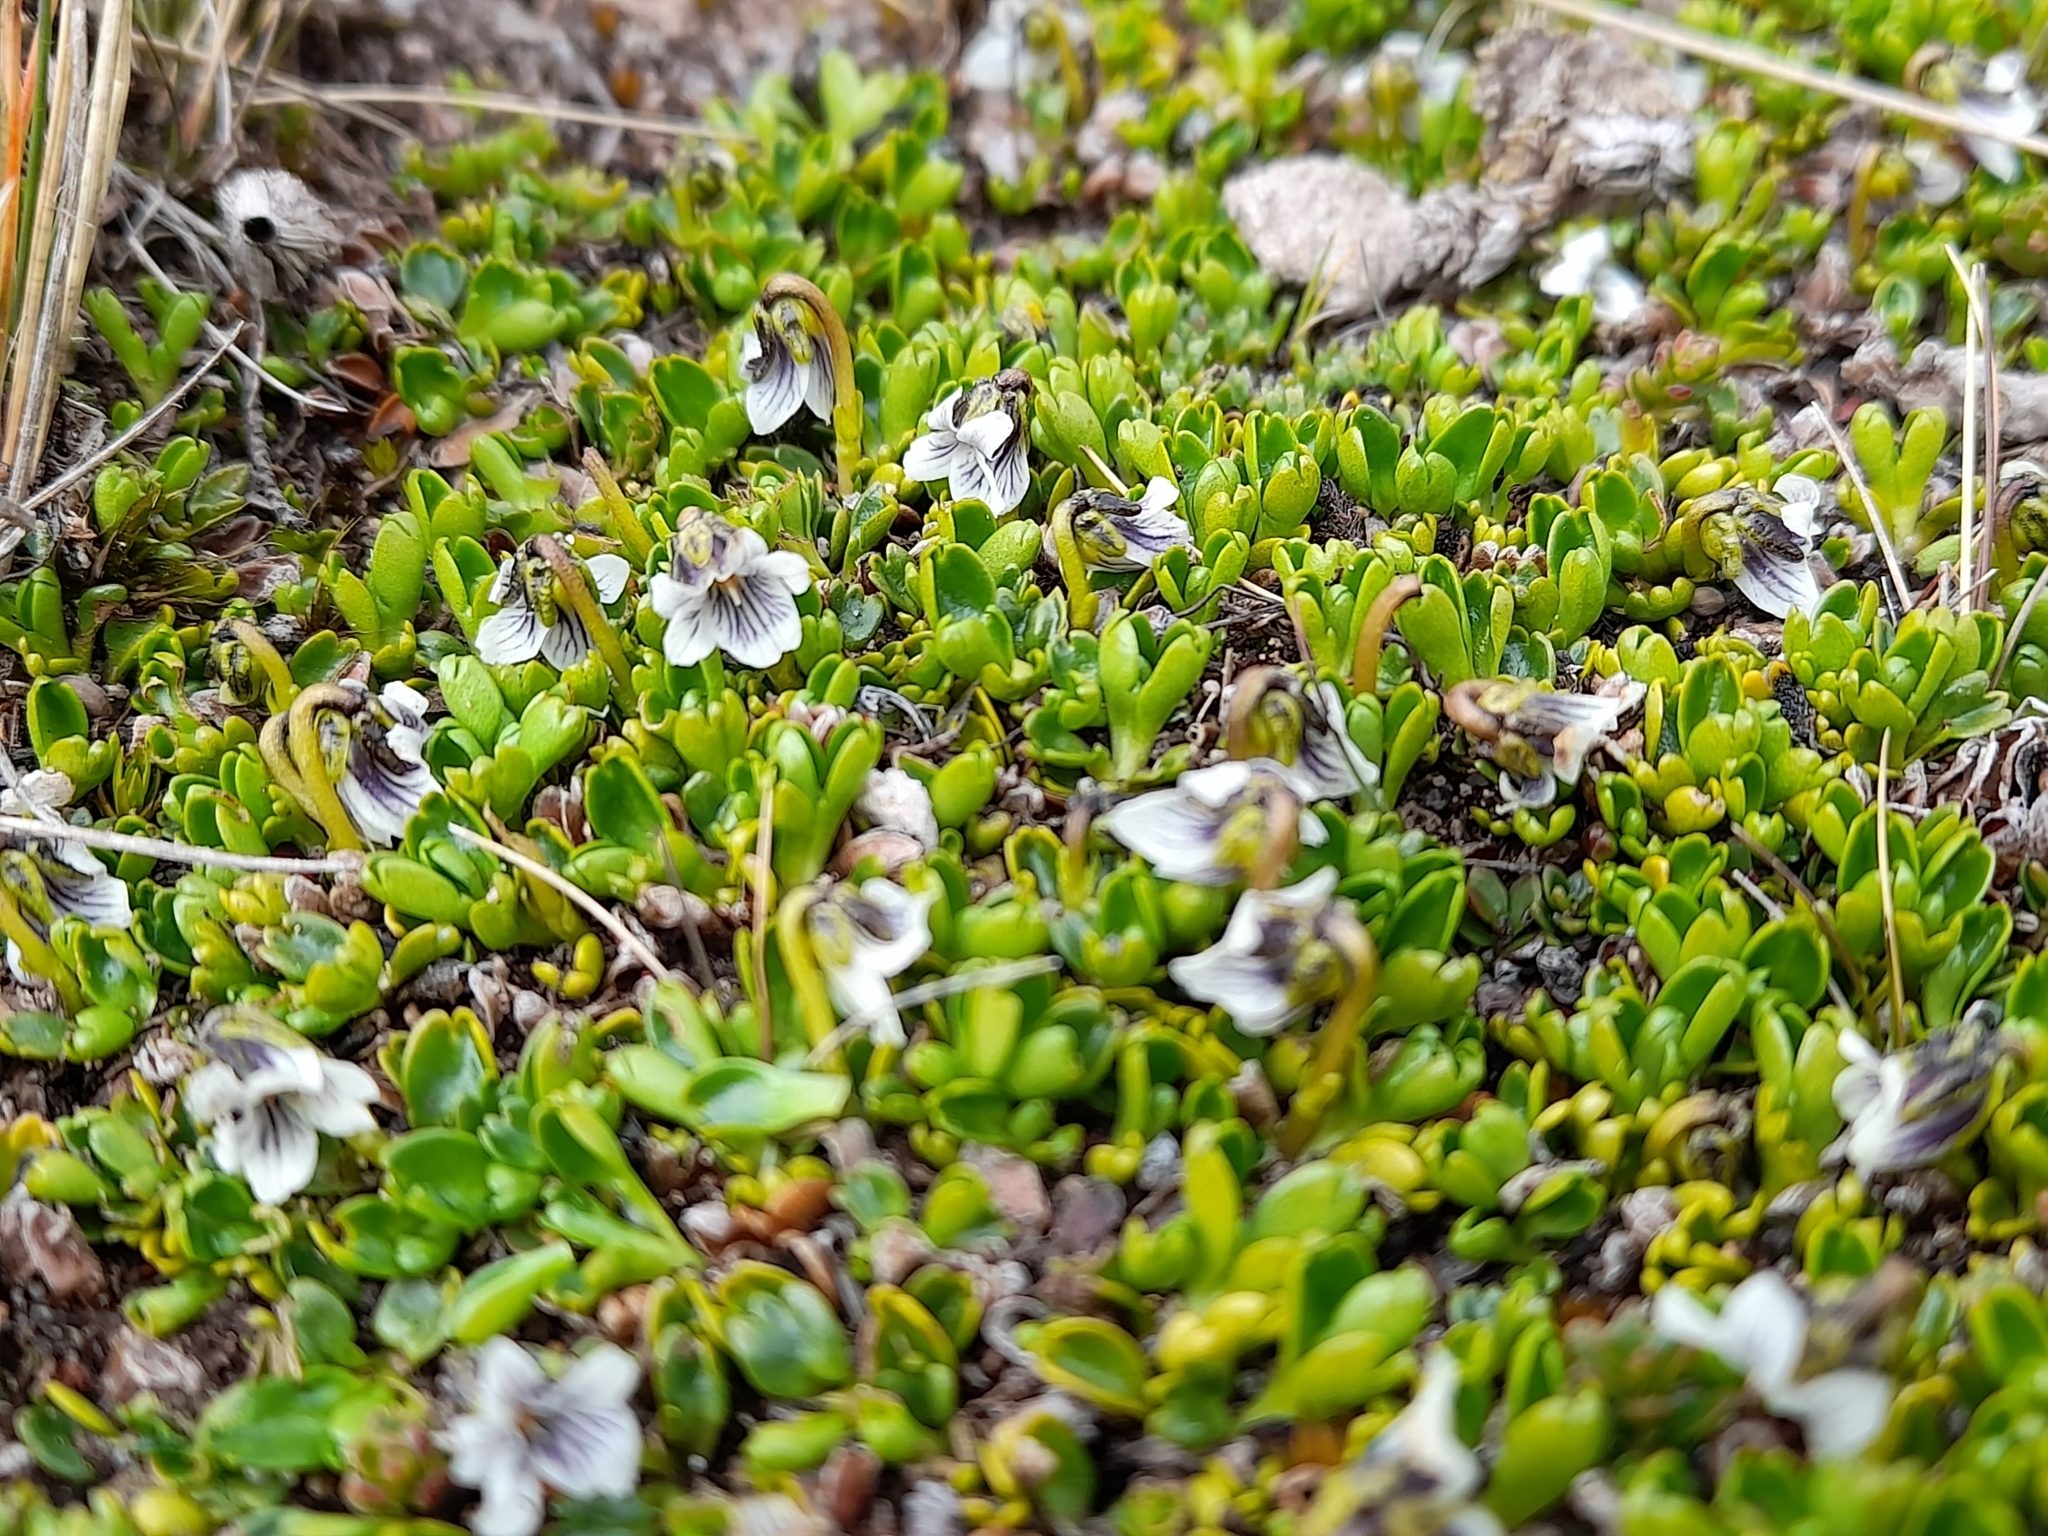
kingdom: Plantae
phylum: Tracheophyta
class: Magnoliopsida
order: Malpighiales
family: Violaceae
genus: Viola
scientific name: Viola tridentata
